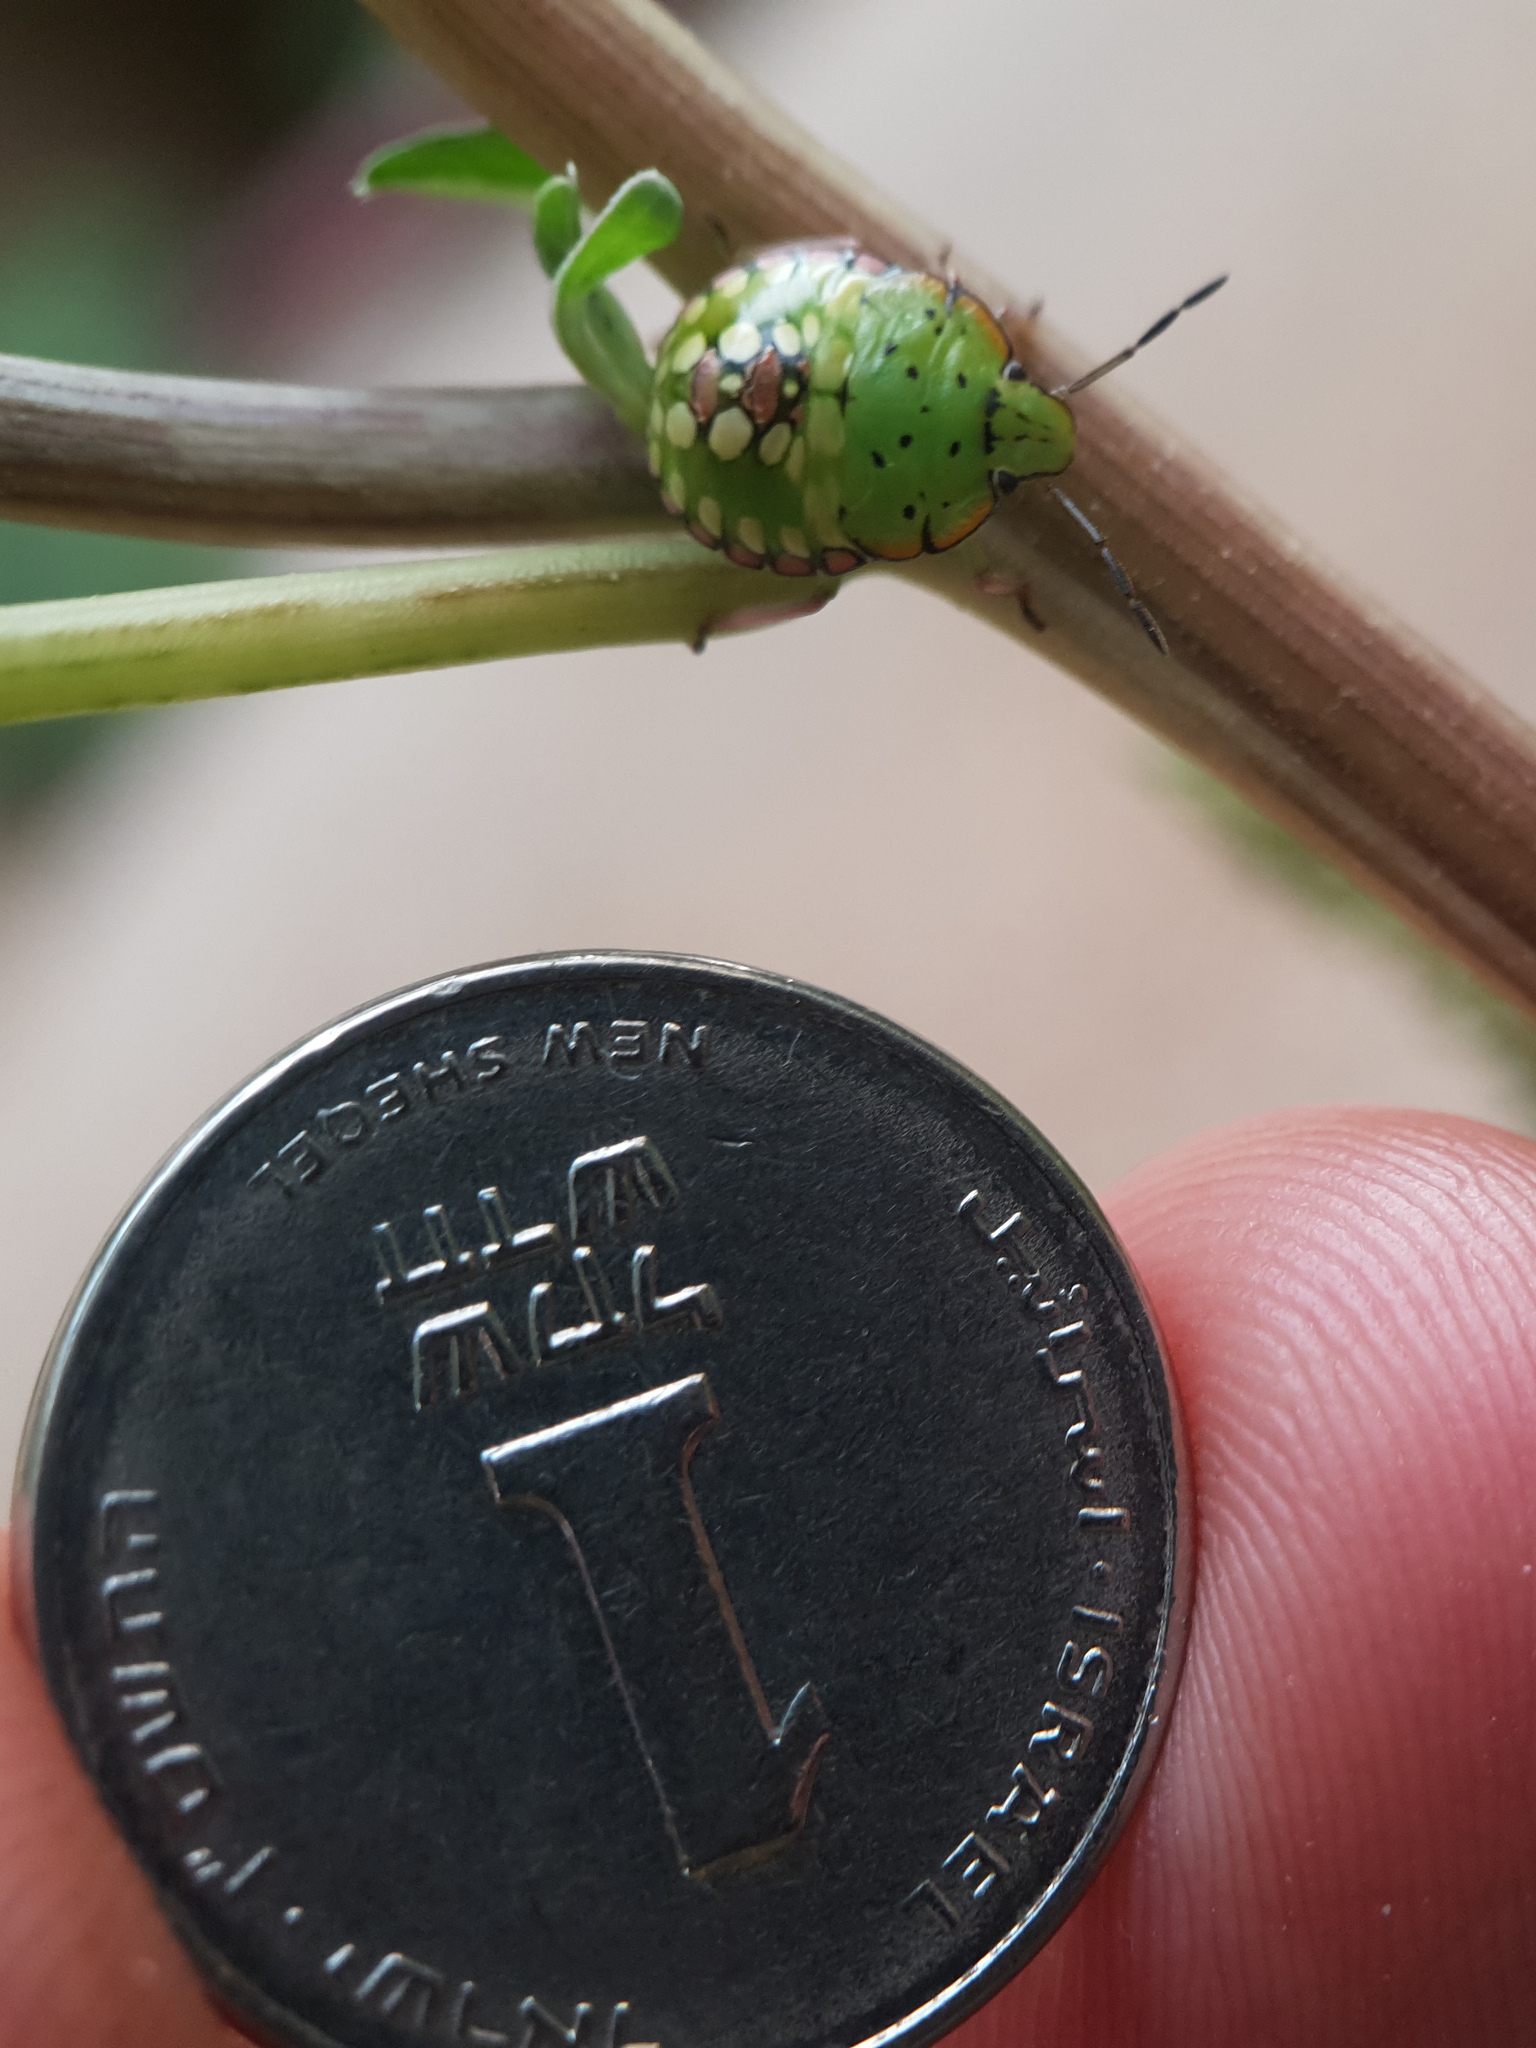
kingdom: Animalia
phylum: Arthropoda
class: Insecta
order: Hemiptera
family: Pentatomidae
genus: Nezara
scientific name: Nezara viridula
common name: Southern green stink bug
